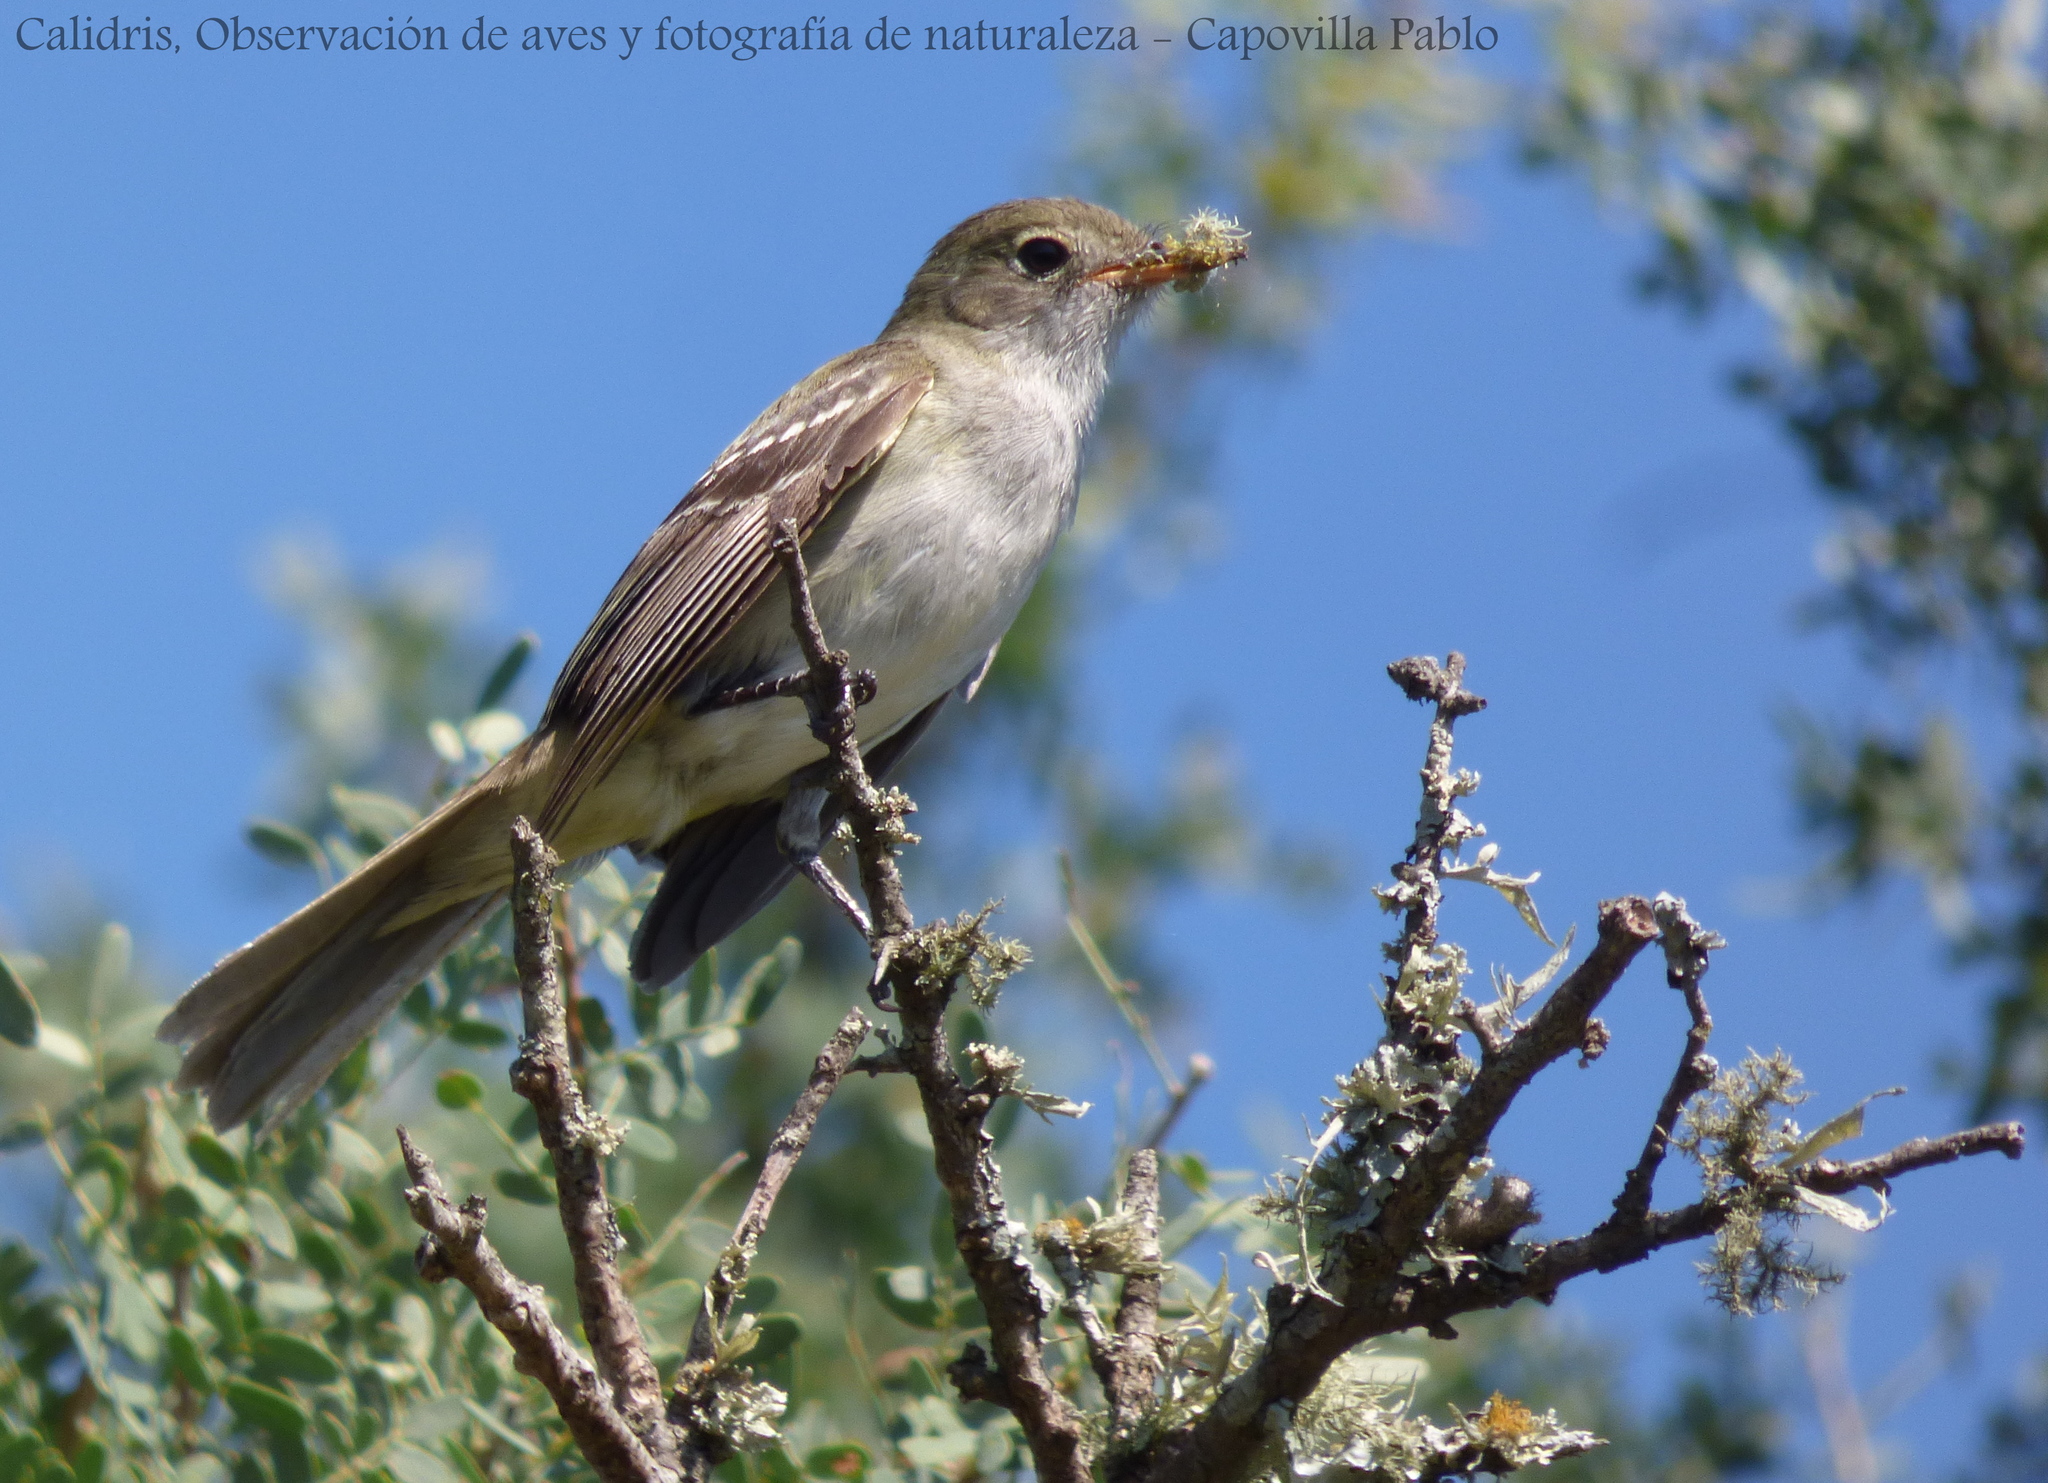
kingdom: Animalia
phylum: Chordata
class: Aves
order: Passeriformes
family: Tyrannidae
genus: Elaenia
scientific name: Elaenia parvirostris
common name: Small-billed elaenia
